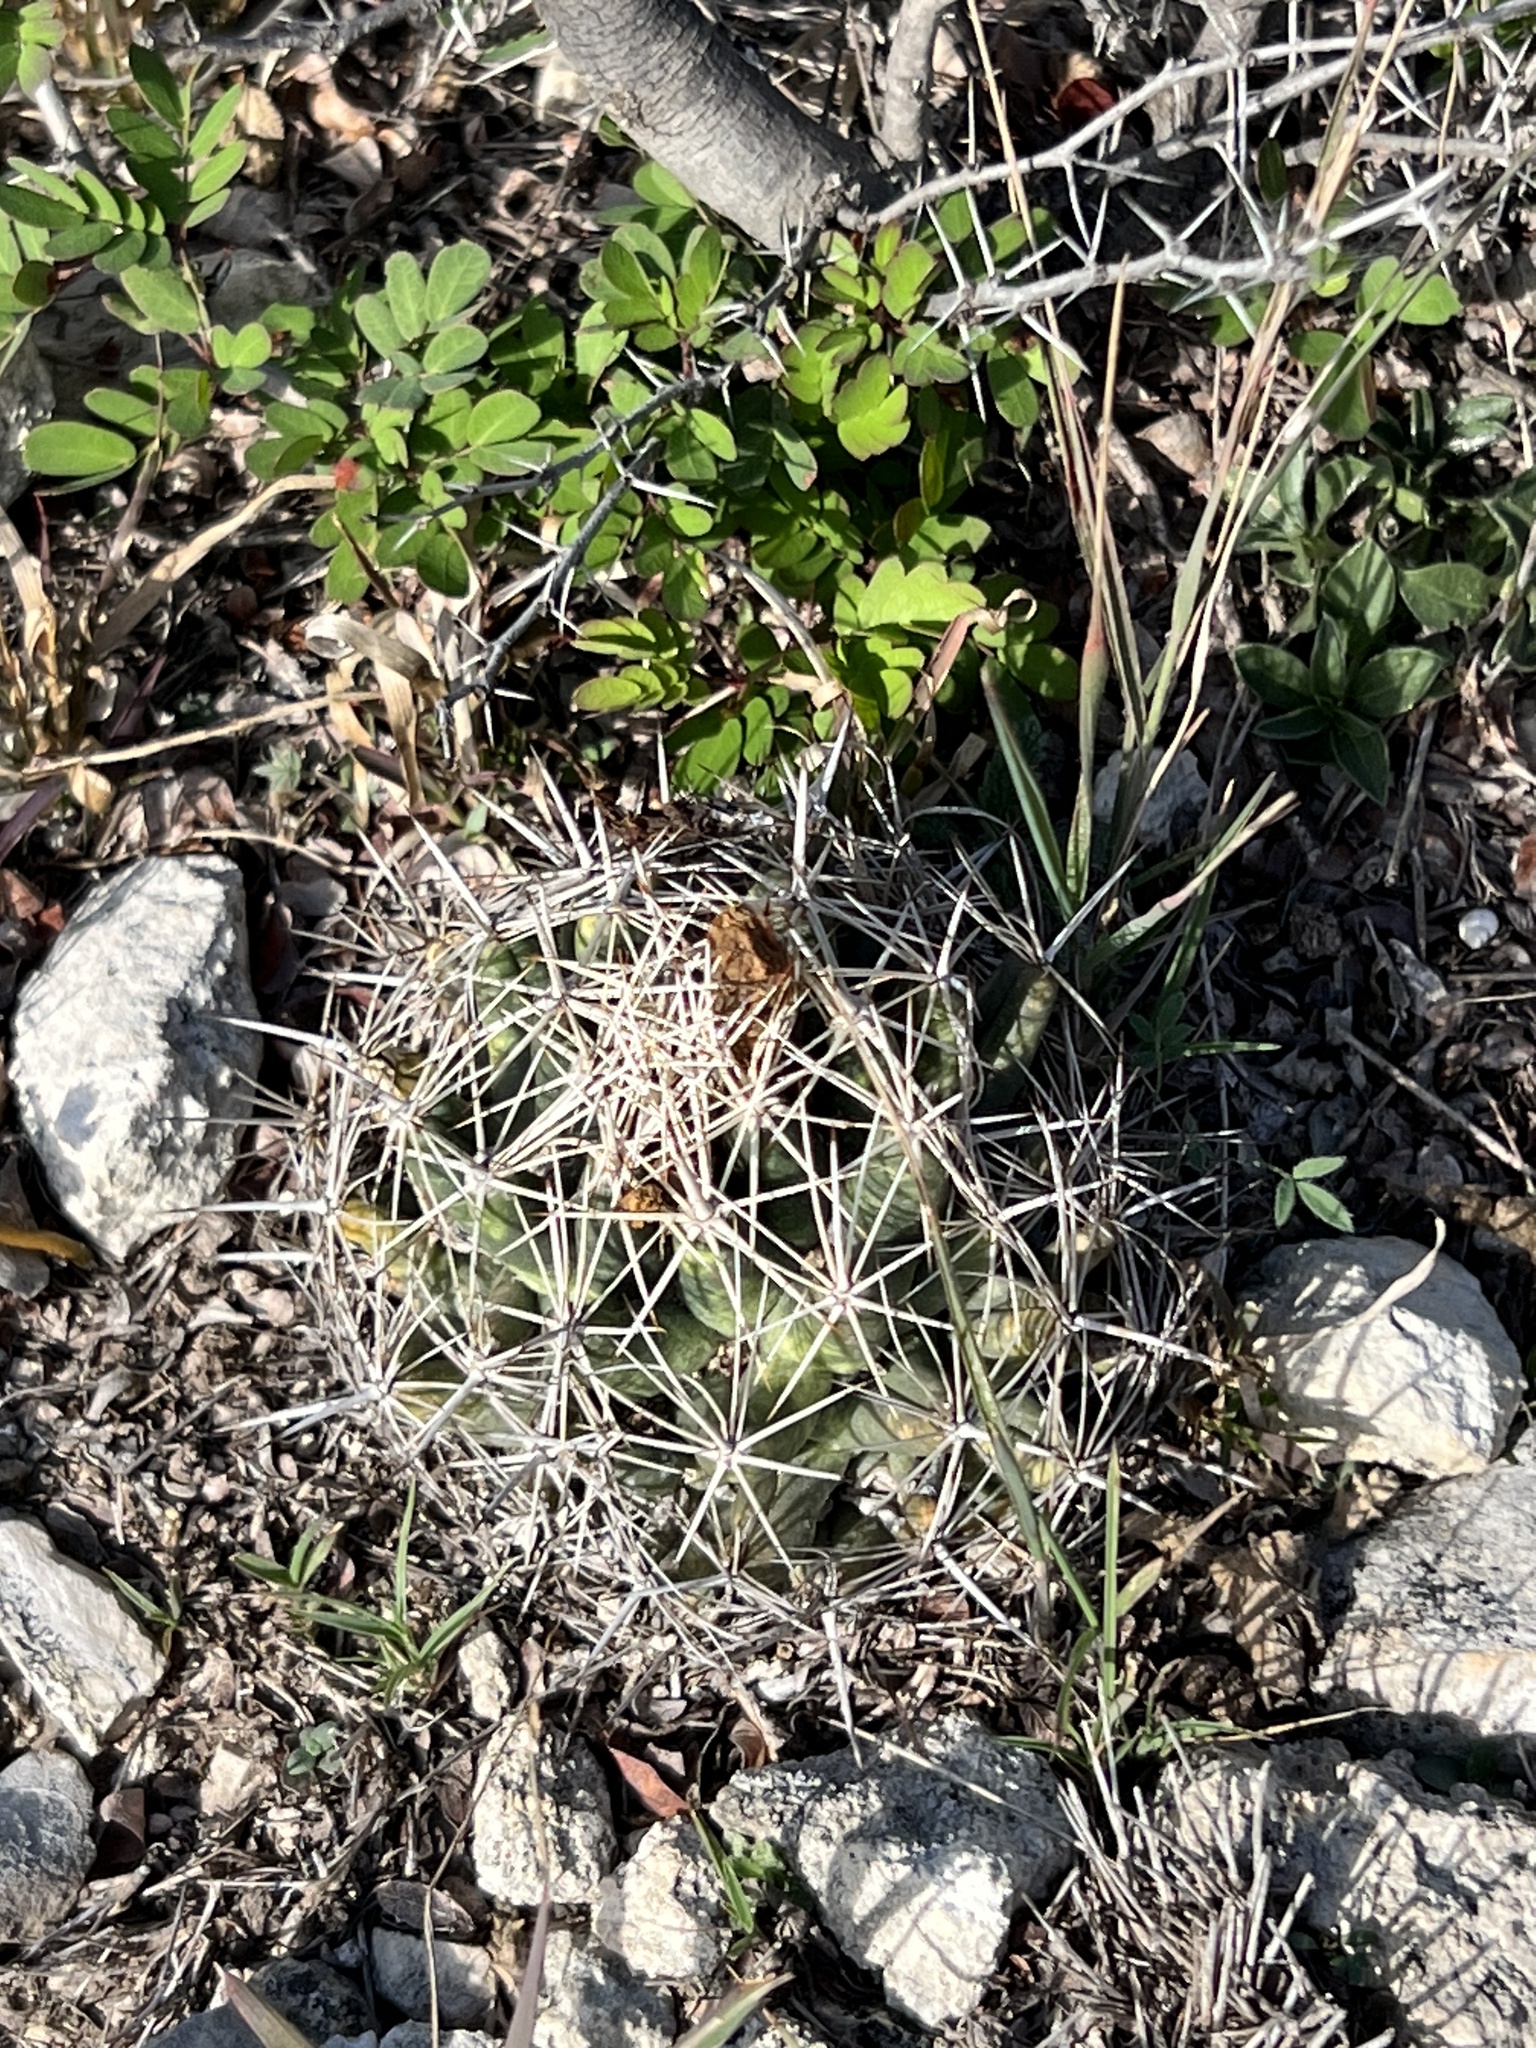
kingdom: Plantae
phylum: Tracheophyta
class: Magnoliopsida
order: Caryophyllales
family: Cactaceae
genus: Coryphantha
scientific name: Coryphantha echinus
